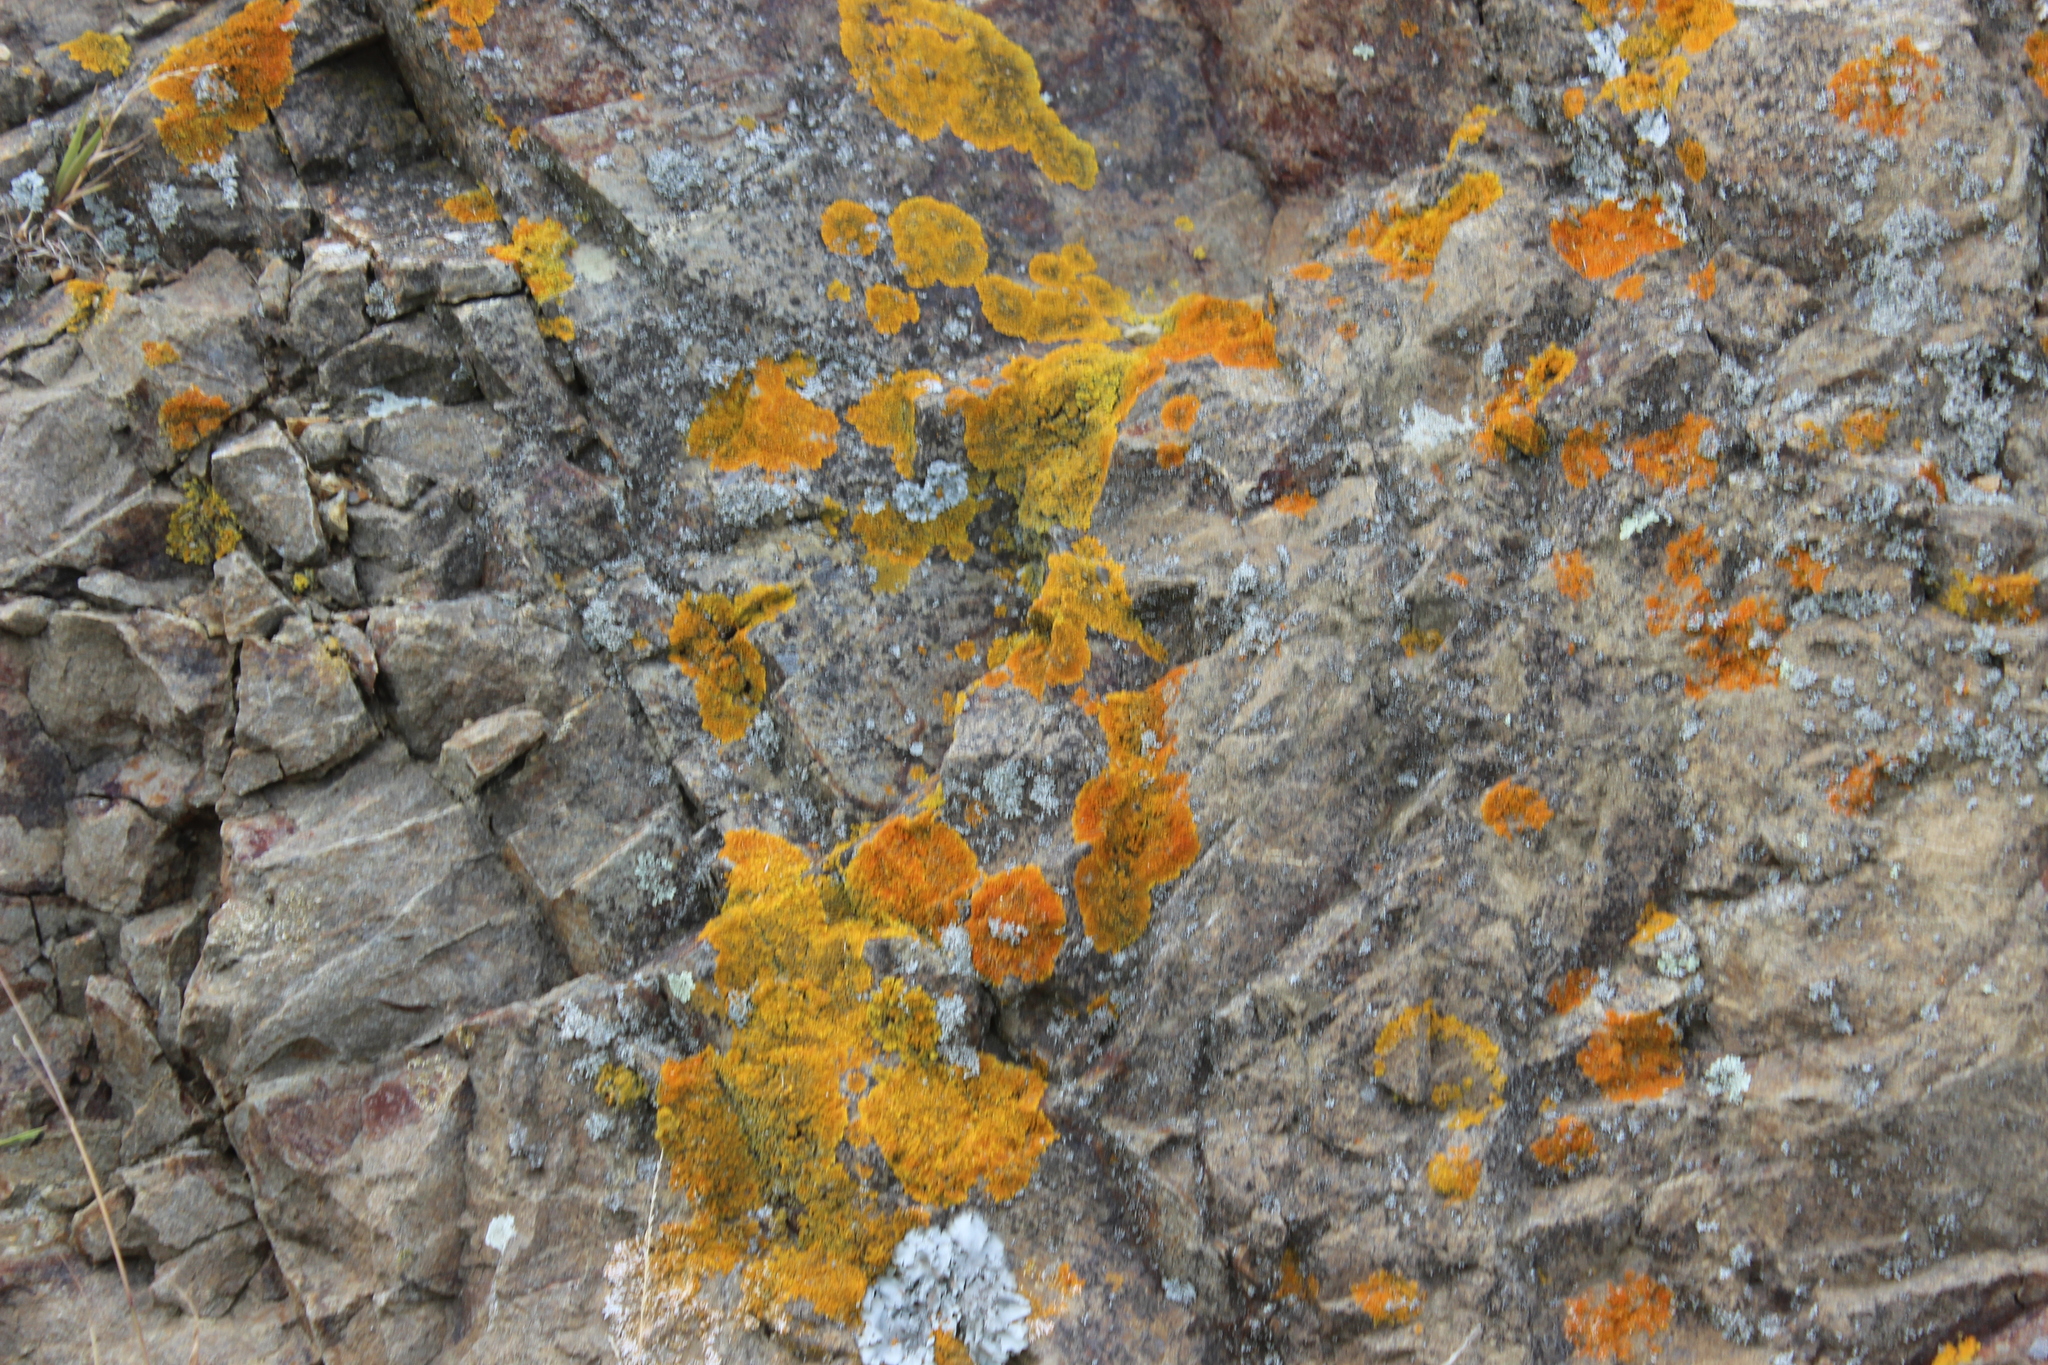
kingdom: Fungi
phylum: Ascomycota
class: Lecanoromycetes
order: Teloschistales
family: Teloschistaceae
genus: Xanthoria
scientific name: Xanthoria parietina
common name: Common orange lichen
